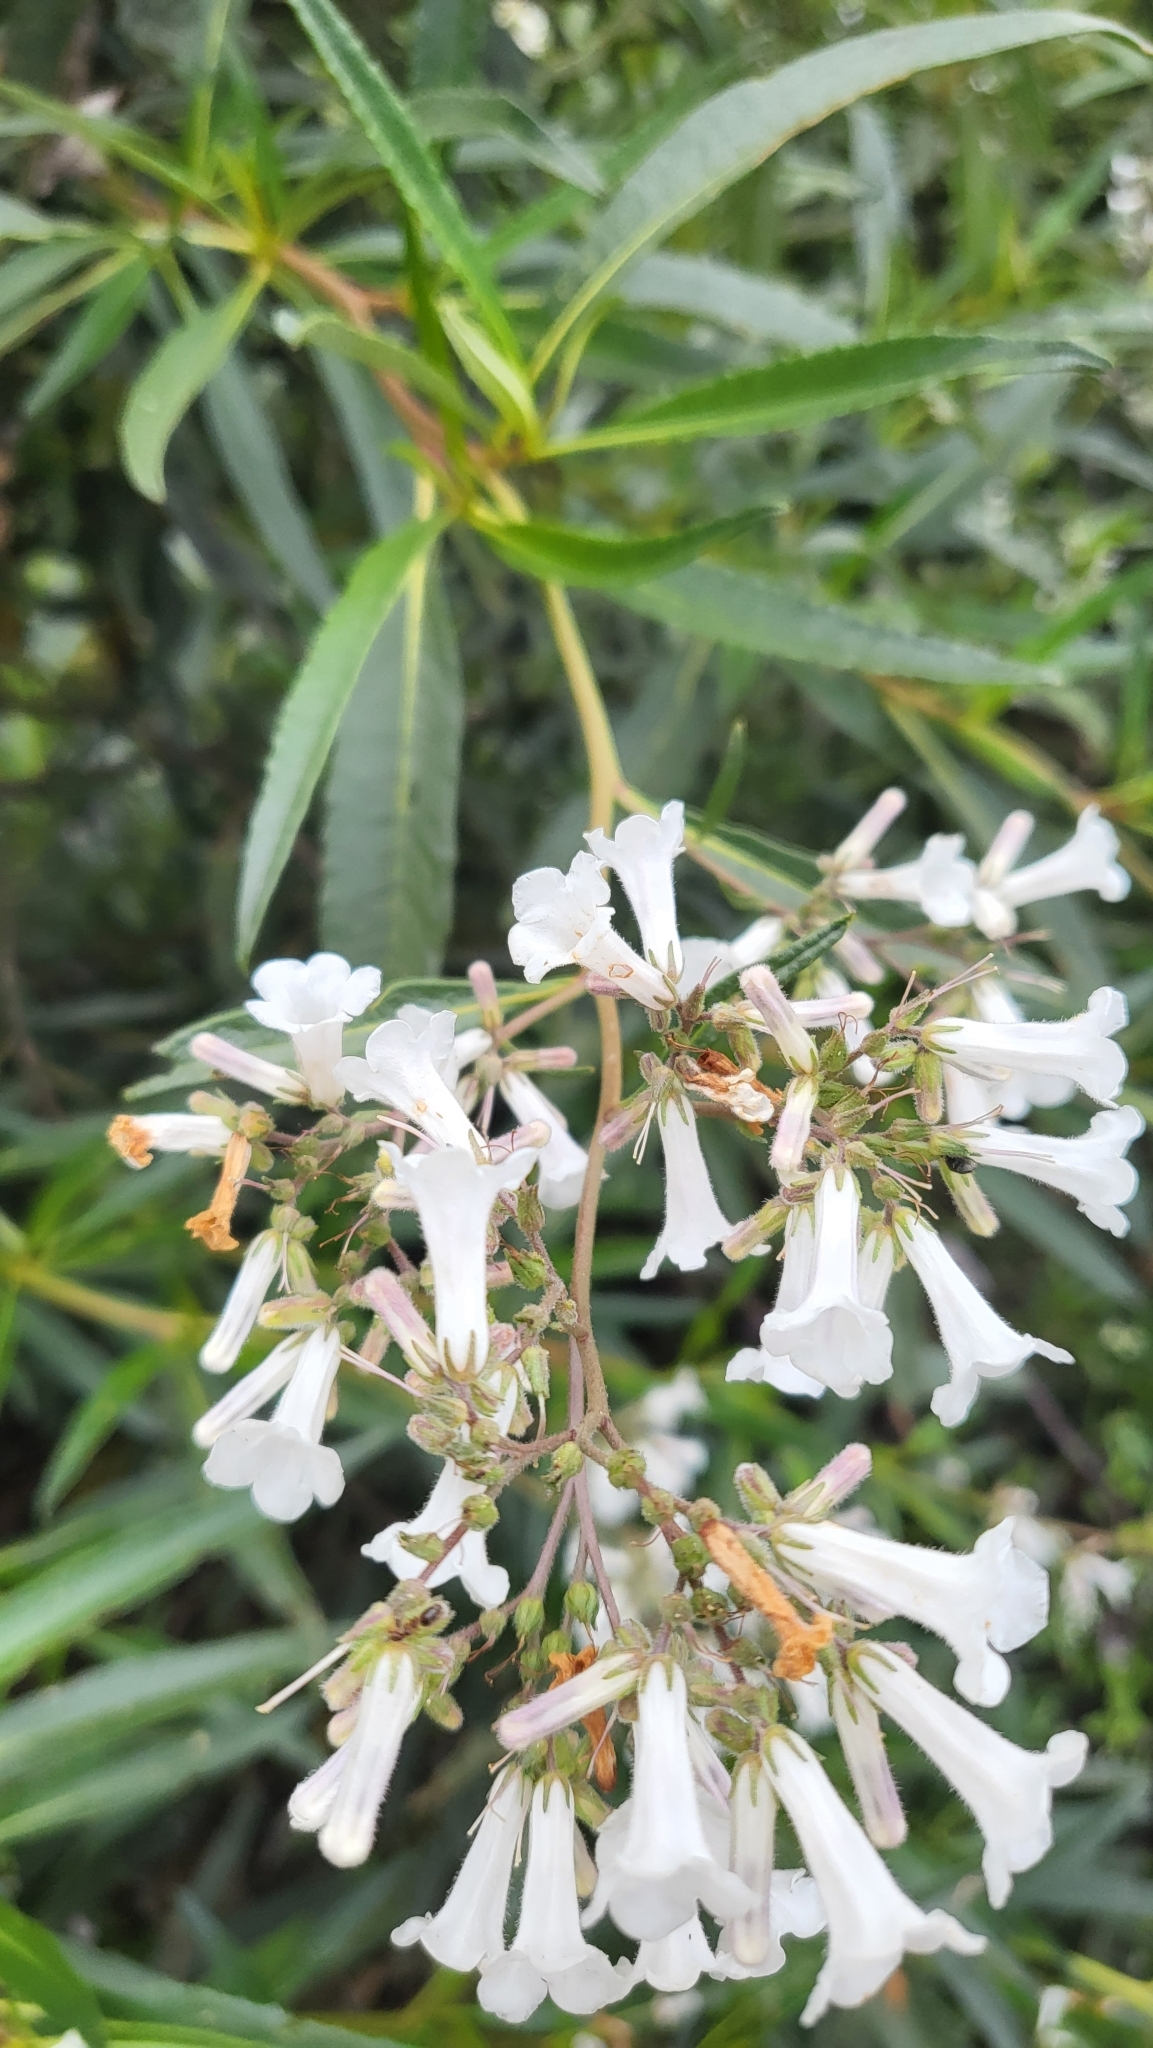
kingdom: Plantae
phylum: Tracheophyta
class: Magnoliopsida
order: Boraginales
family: Namaceae
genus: Eriodictyon
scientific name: Eriodictyon californicum
